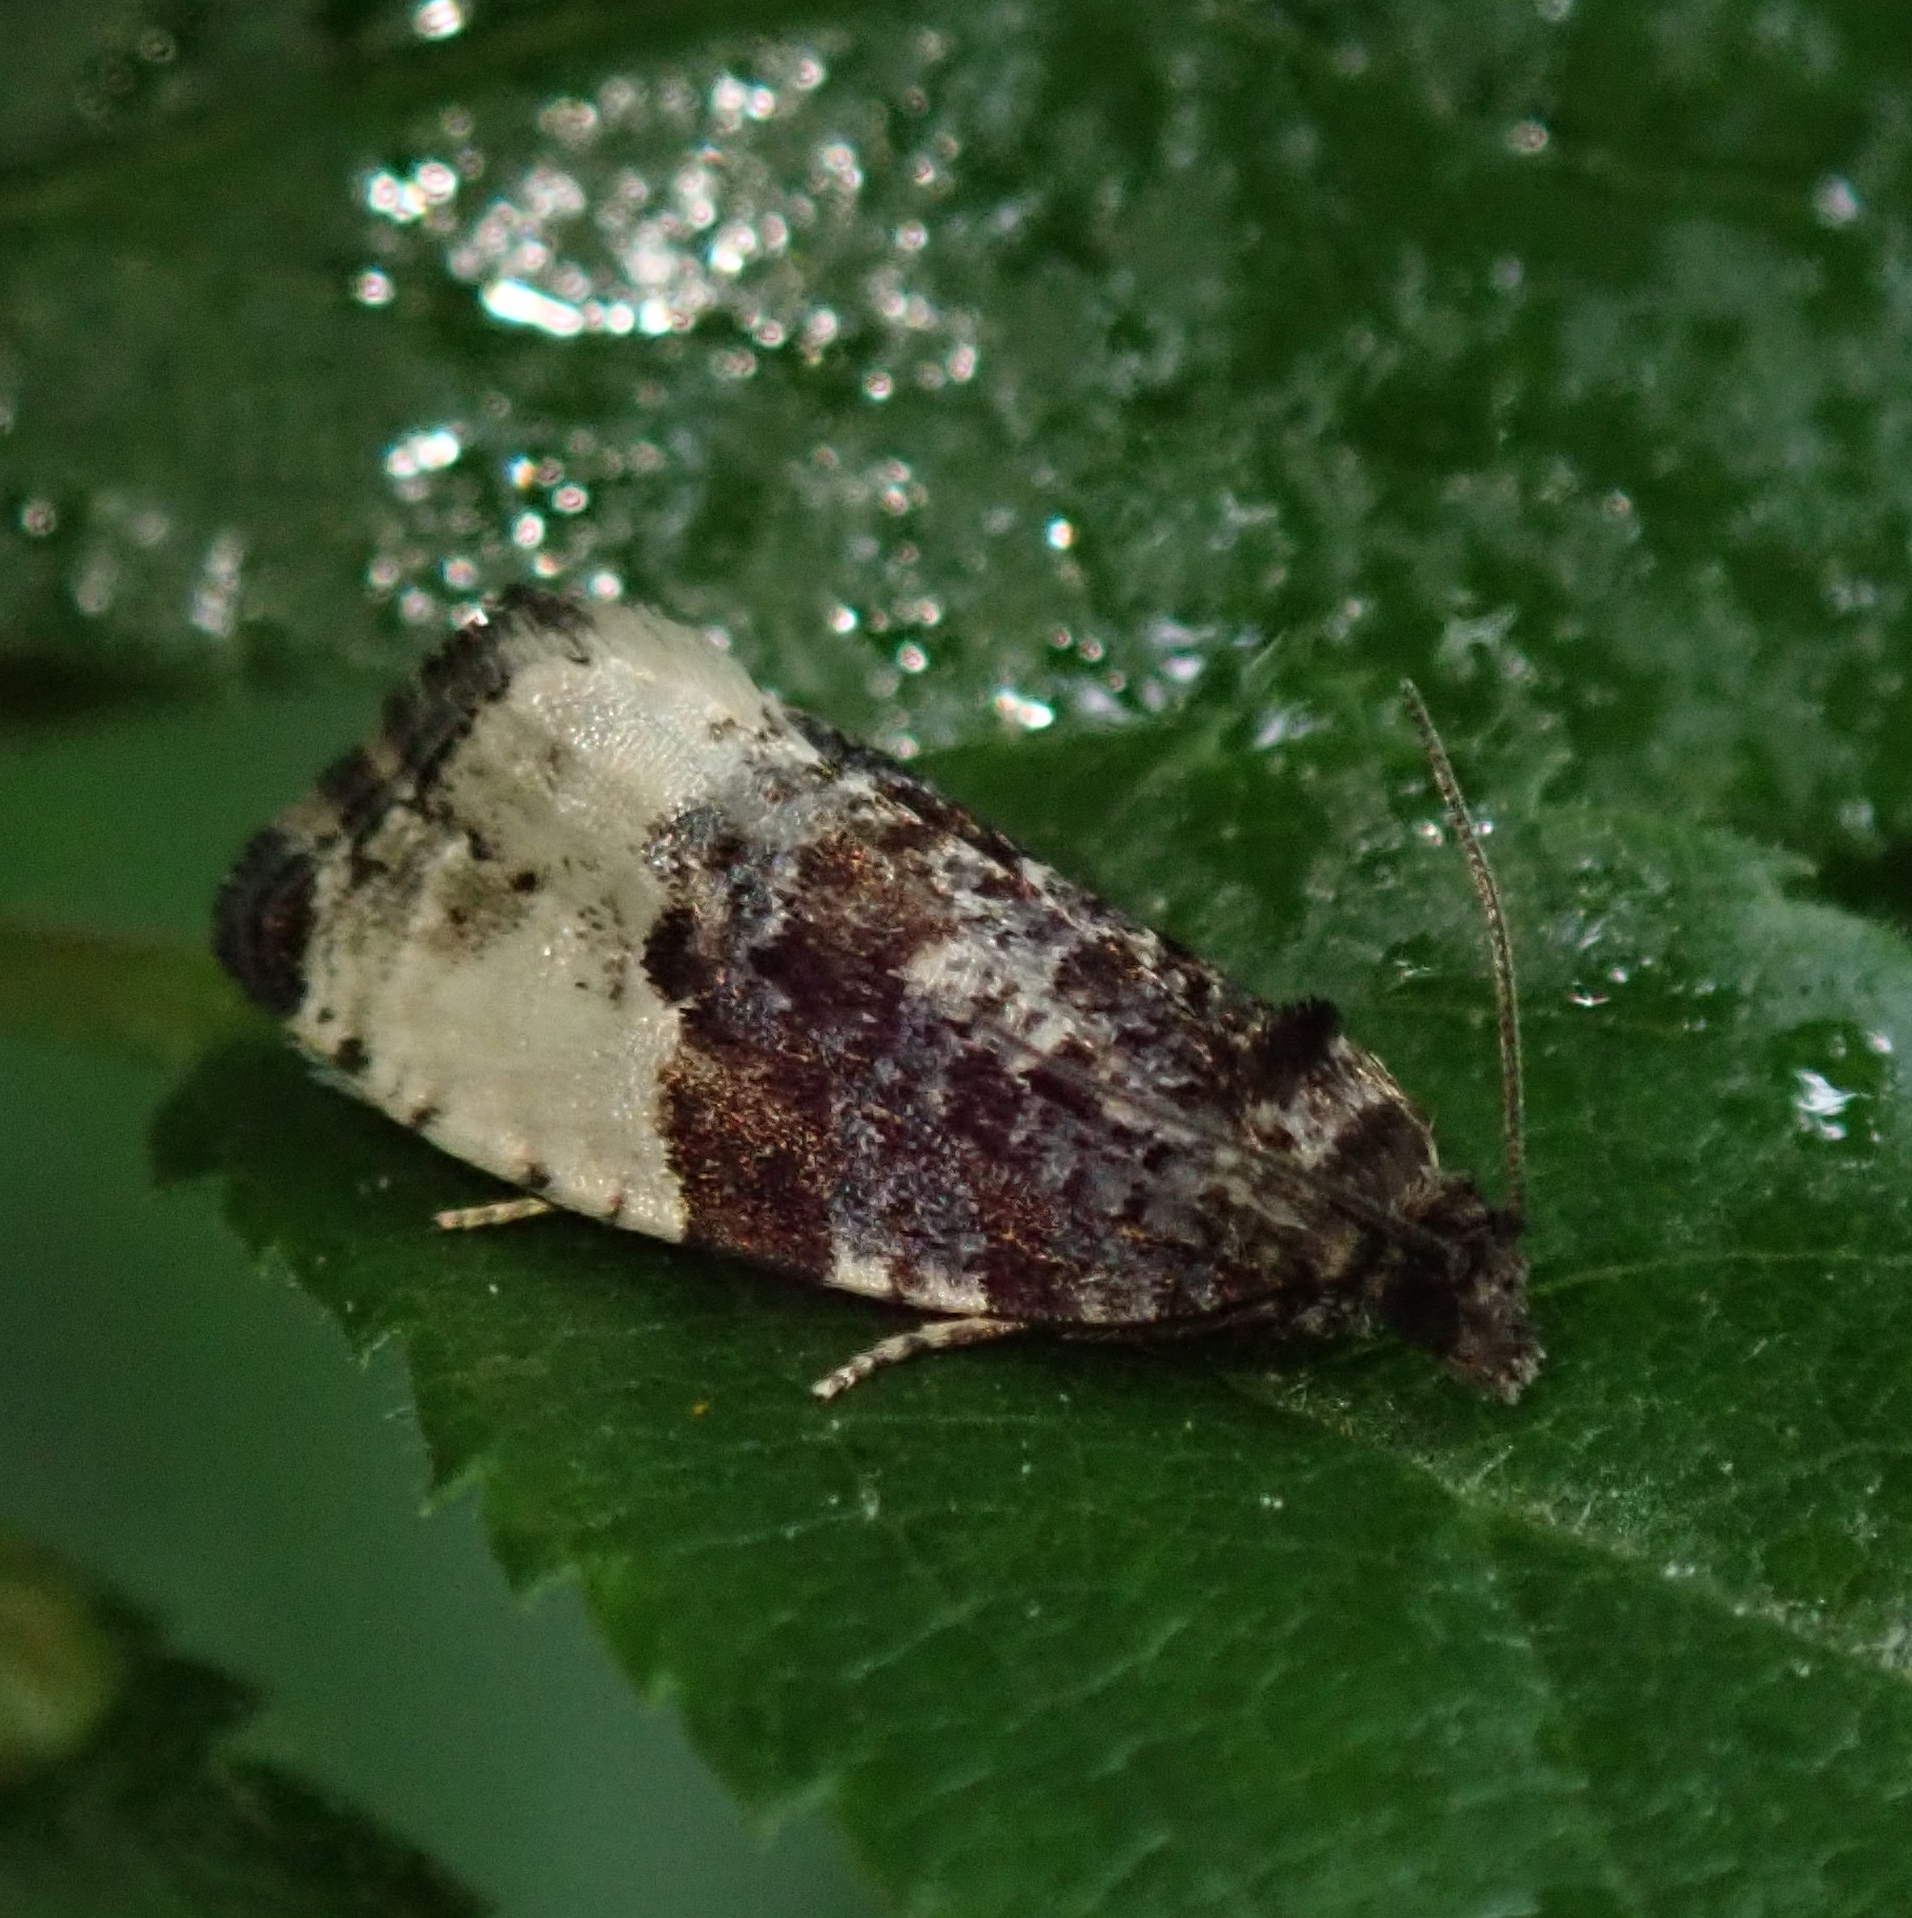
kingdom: Animalia
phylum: Arthropoda
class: Insecta
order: Lepidoptera
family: Tortricidae
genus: Hedya
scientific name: Hedya pruniana
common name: Plum tortrix
